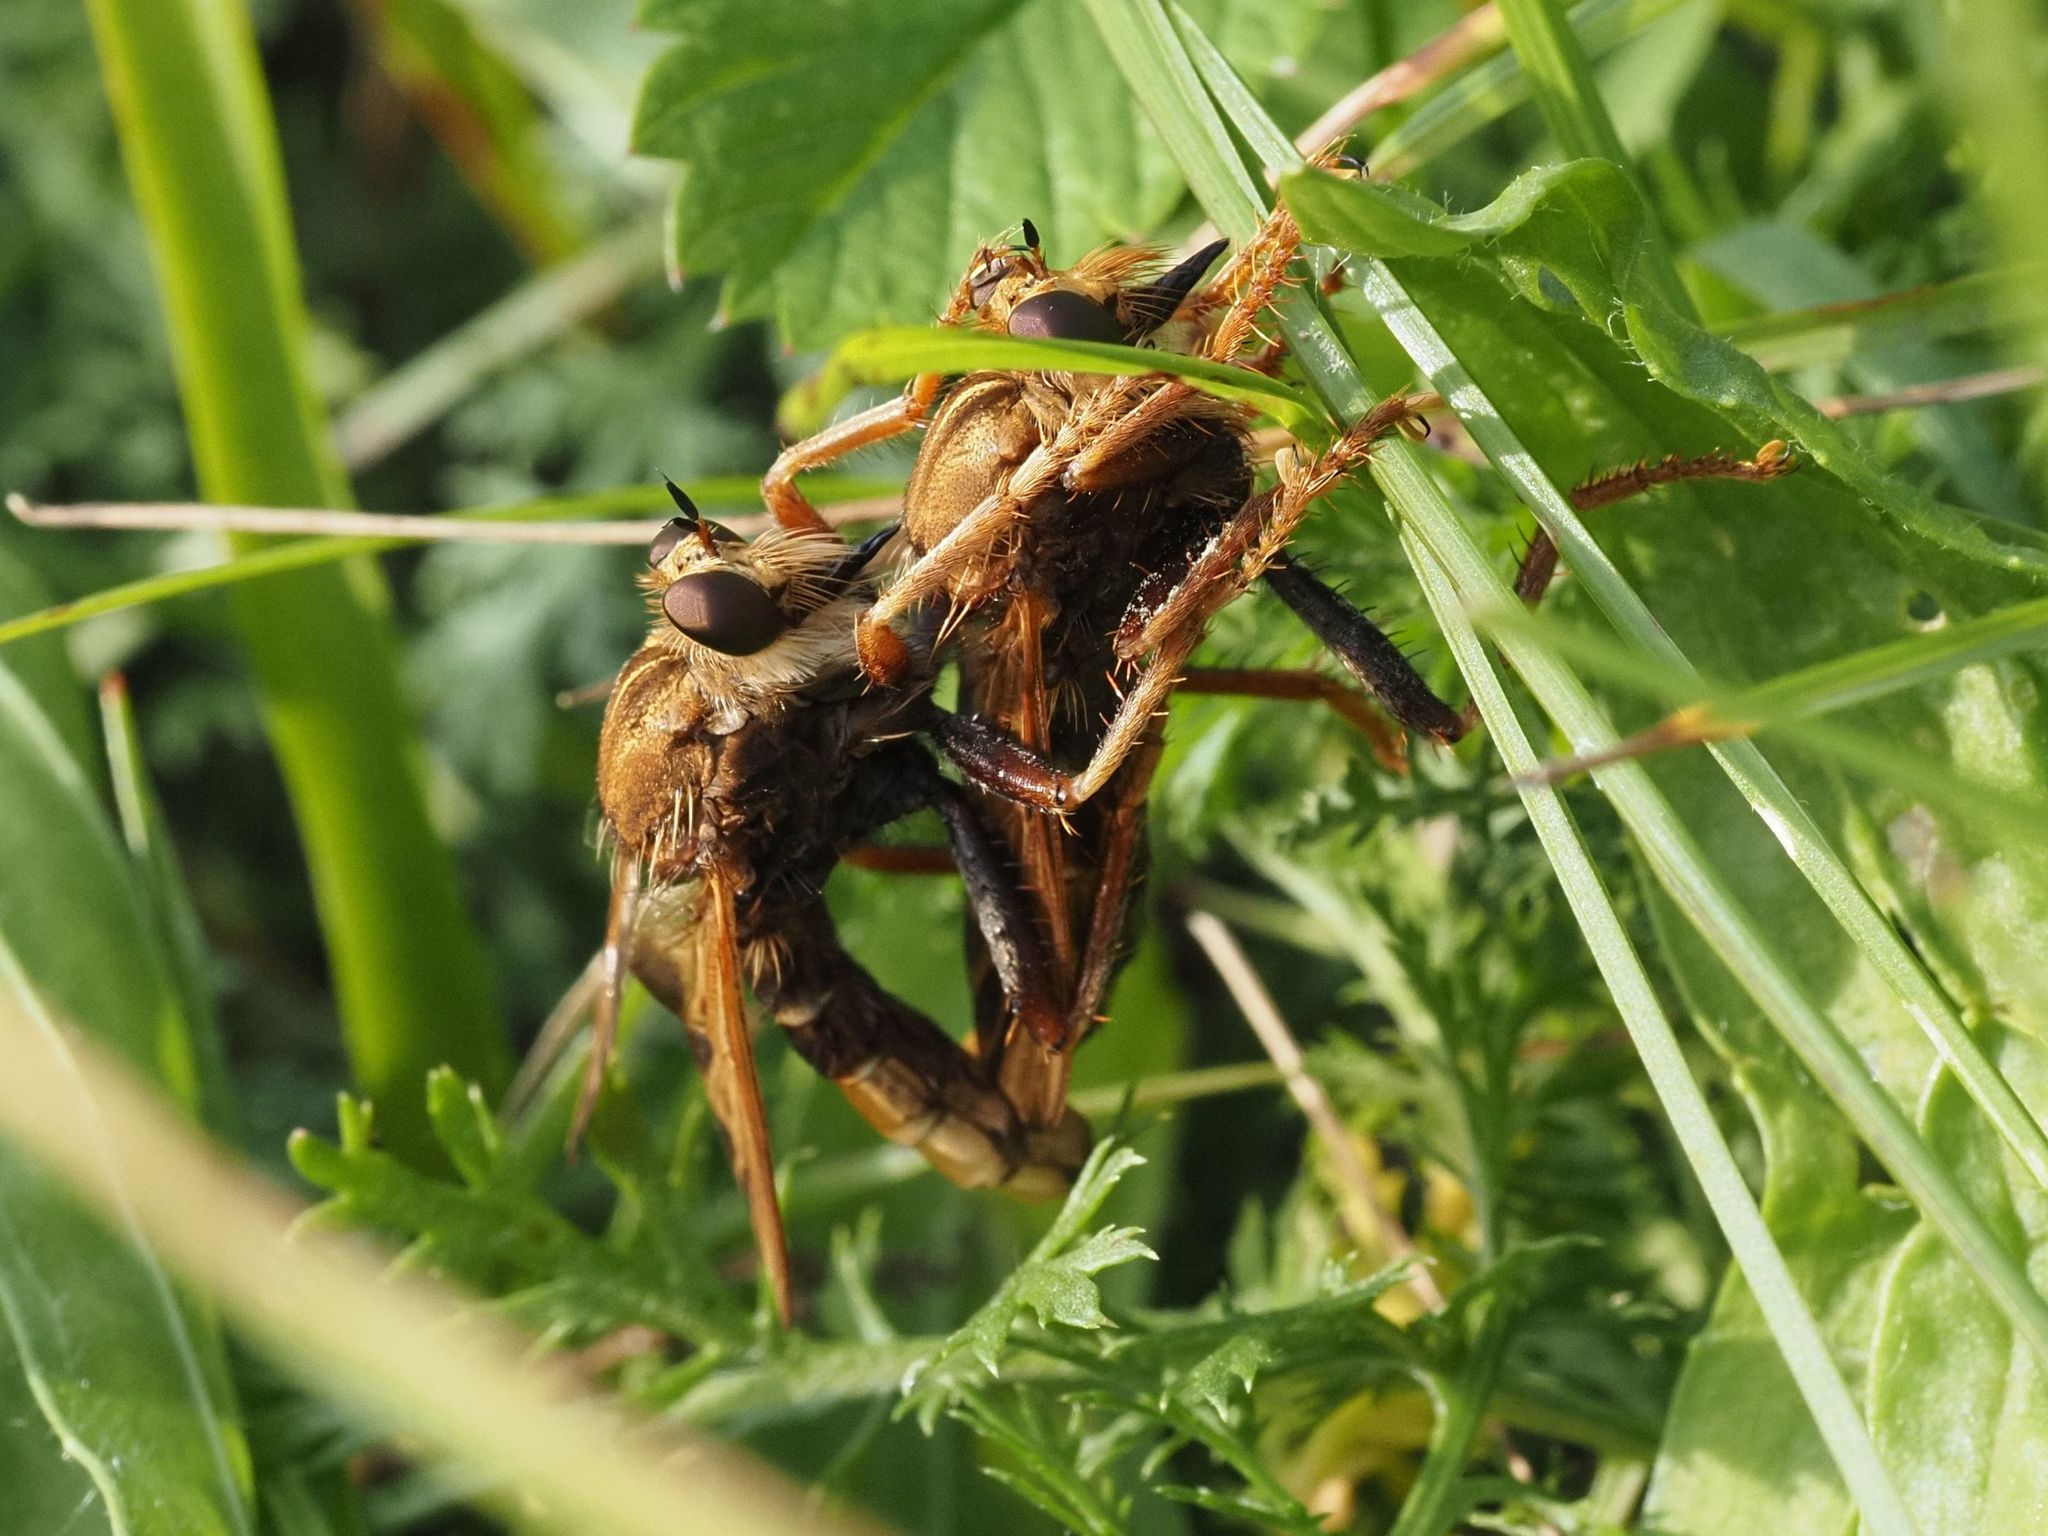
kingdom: Animalia
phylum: Arthropoda
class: Insecta
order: Diptera
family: Asilidae
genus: Asilus
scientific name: Asilus crabroniformis
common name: Hornet robberfly
